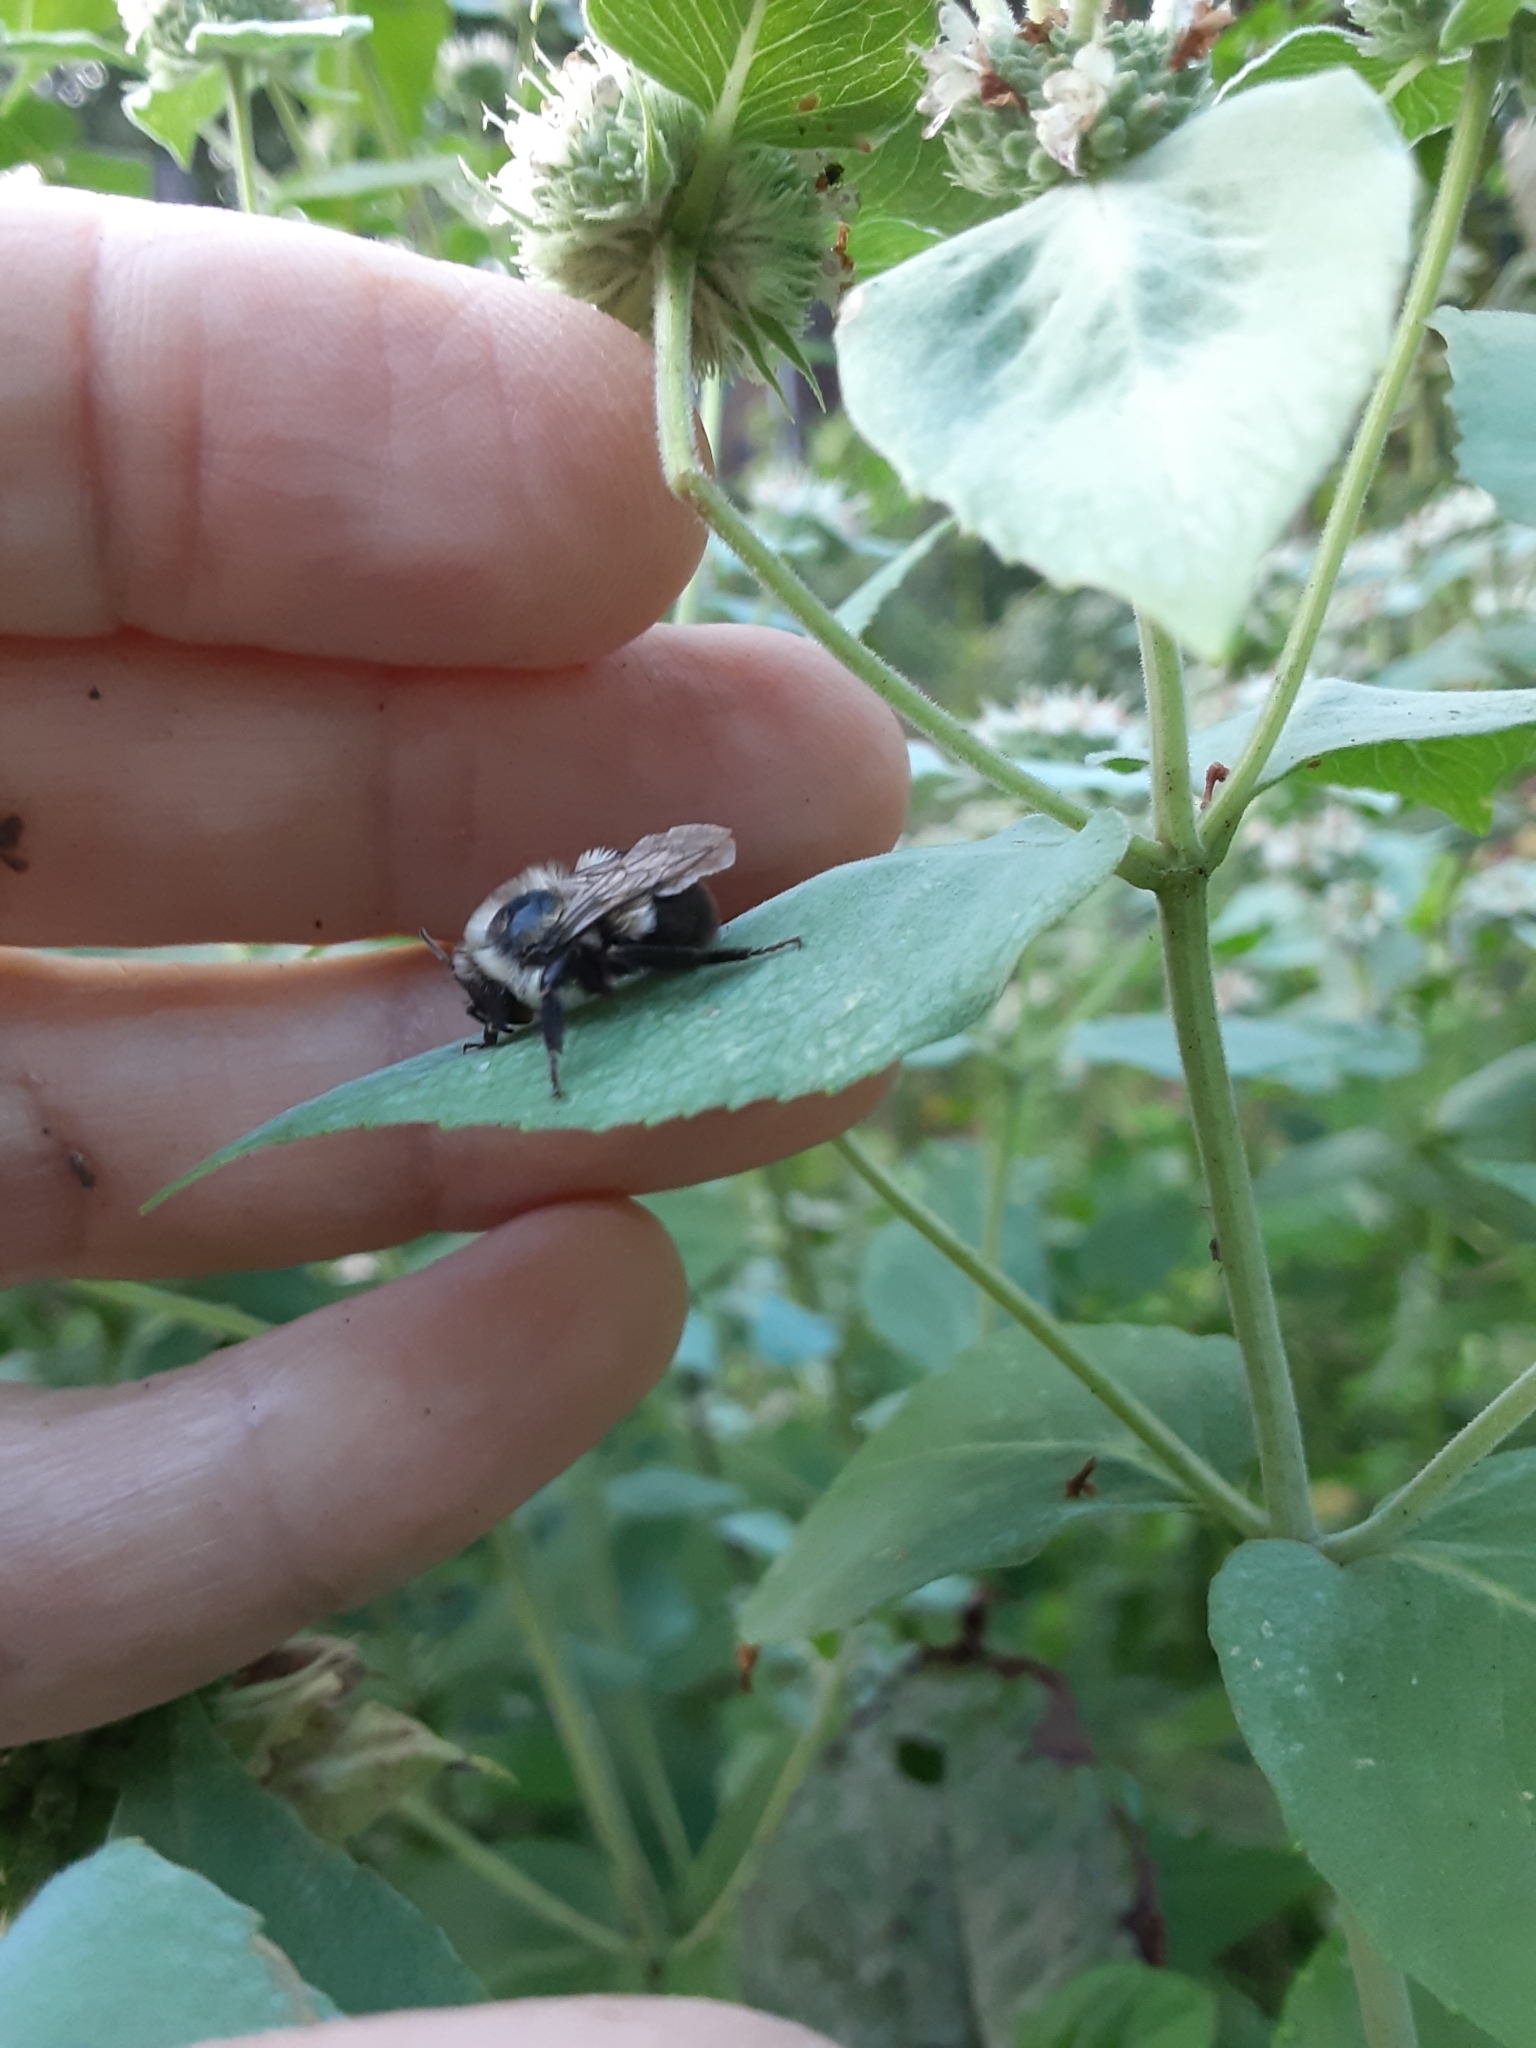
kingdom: Animalia
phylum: Arthropoda
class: Insecta
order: Hymenoptera
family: Apidae
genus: Bombus
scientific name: Bombus impatiens
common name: Common eastern bumble bee
